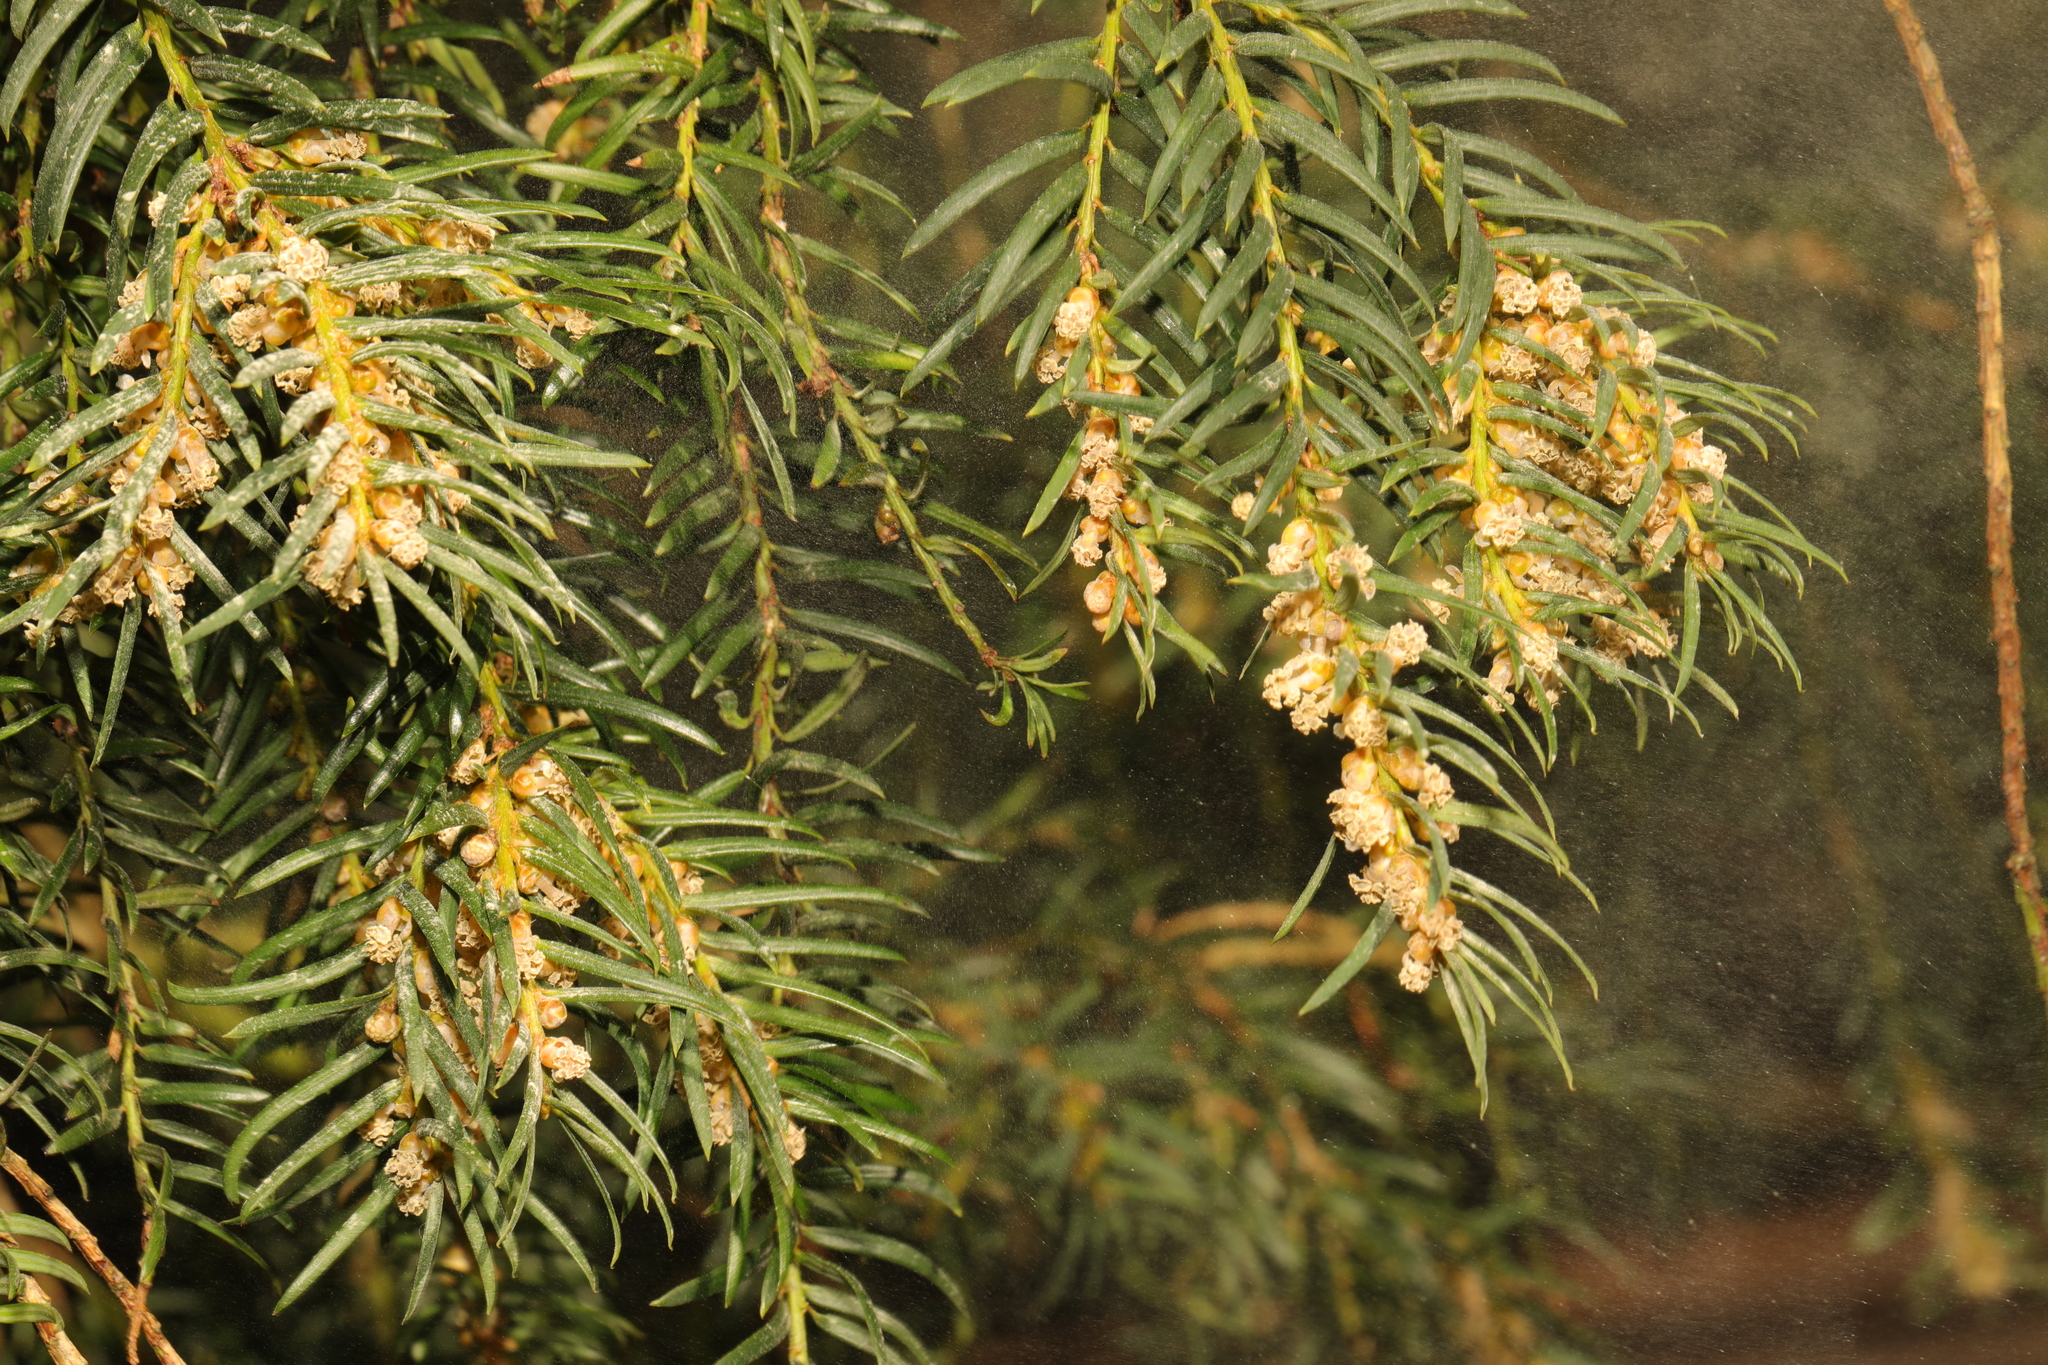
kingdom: Plantae
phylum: Tracheophyta
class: Pinopsida
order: Pinales
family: Taxaceae
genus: Taxus
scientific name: Taxus baccata
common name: Yew
